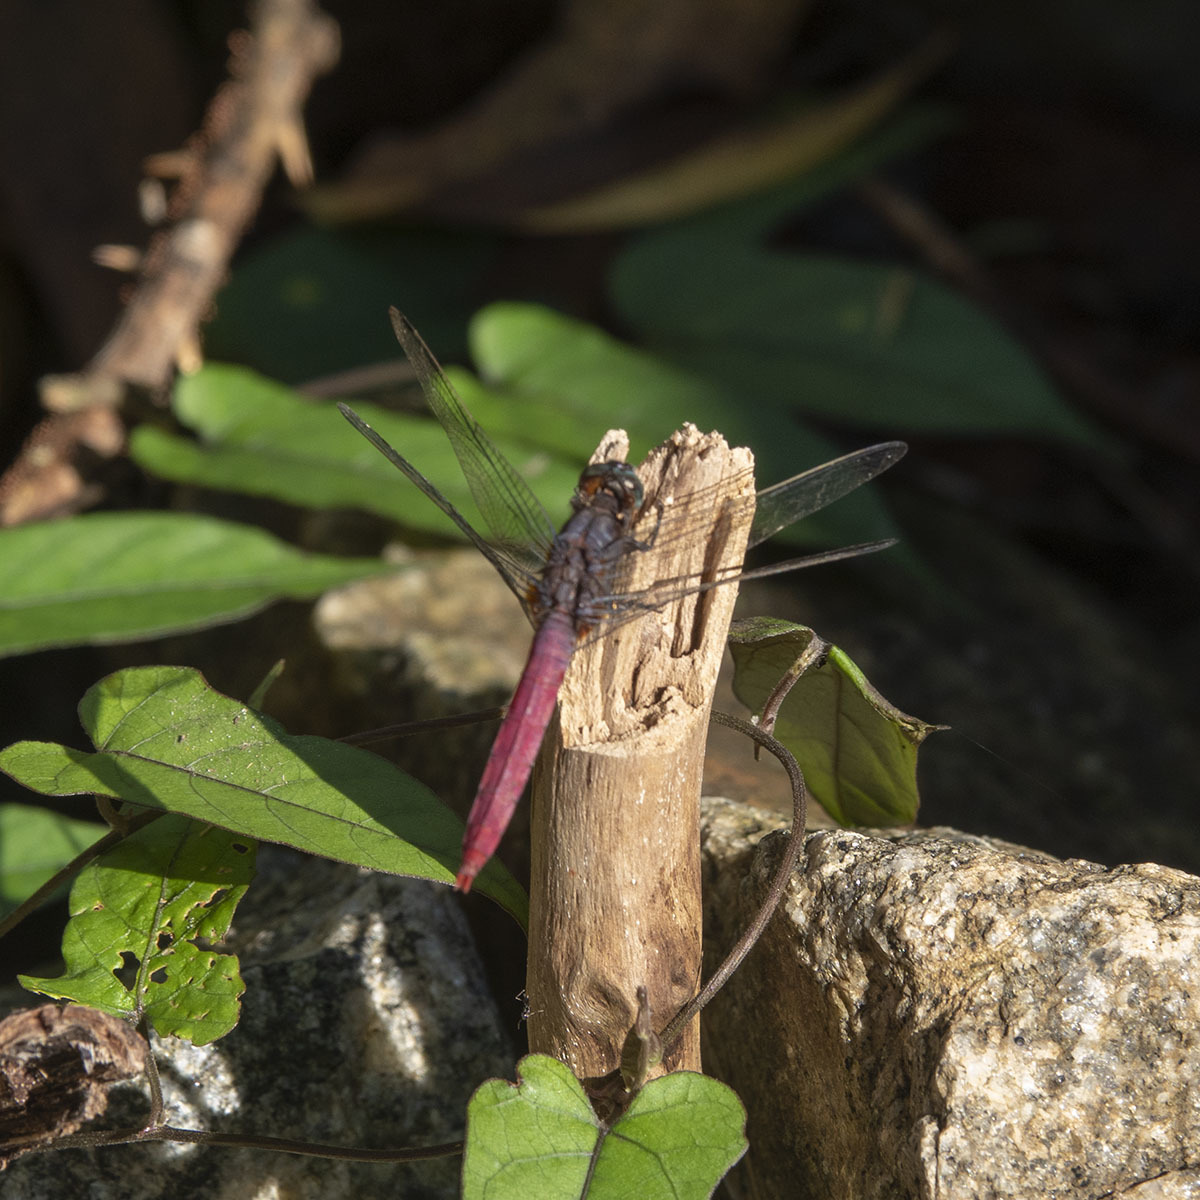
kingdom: Animalia
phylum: Arthropoda
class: Insecta
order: Odonata
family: Libellulidae
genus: Orthetrum
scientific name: Orthetrum pruinosum
